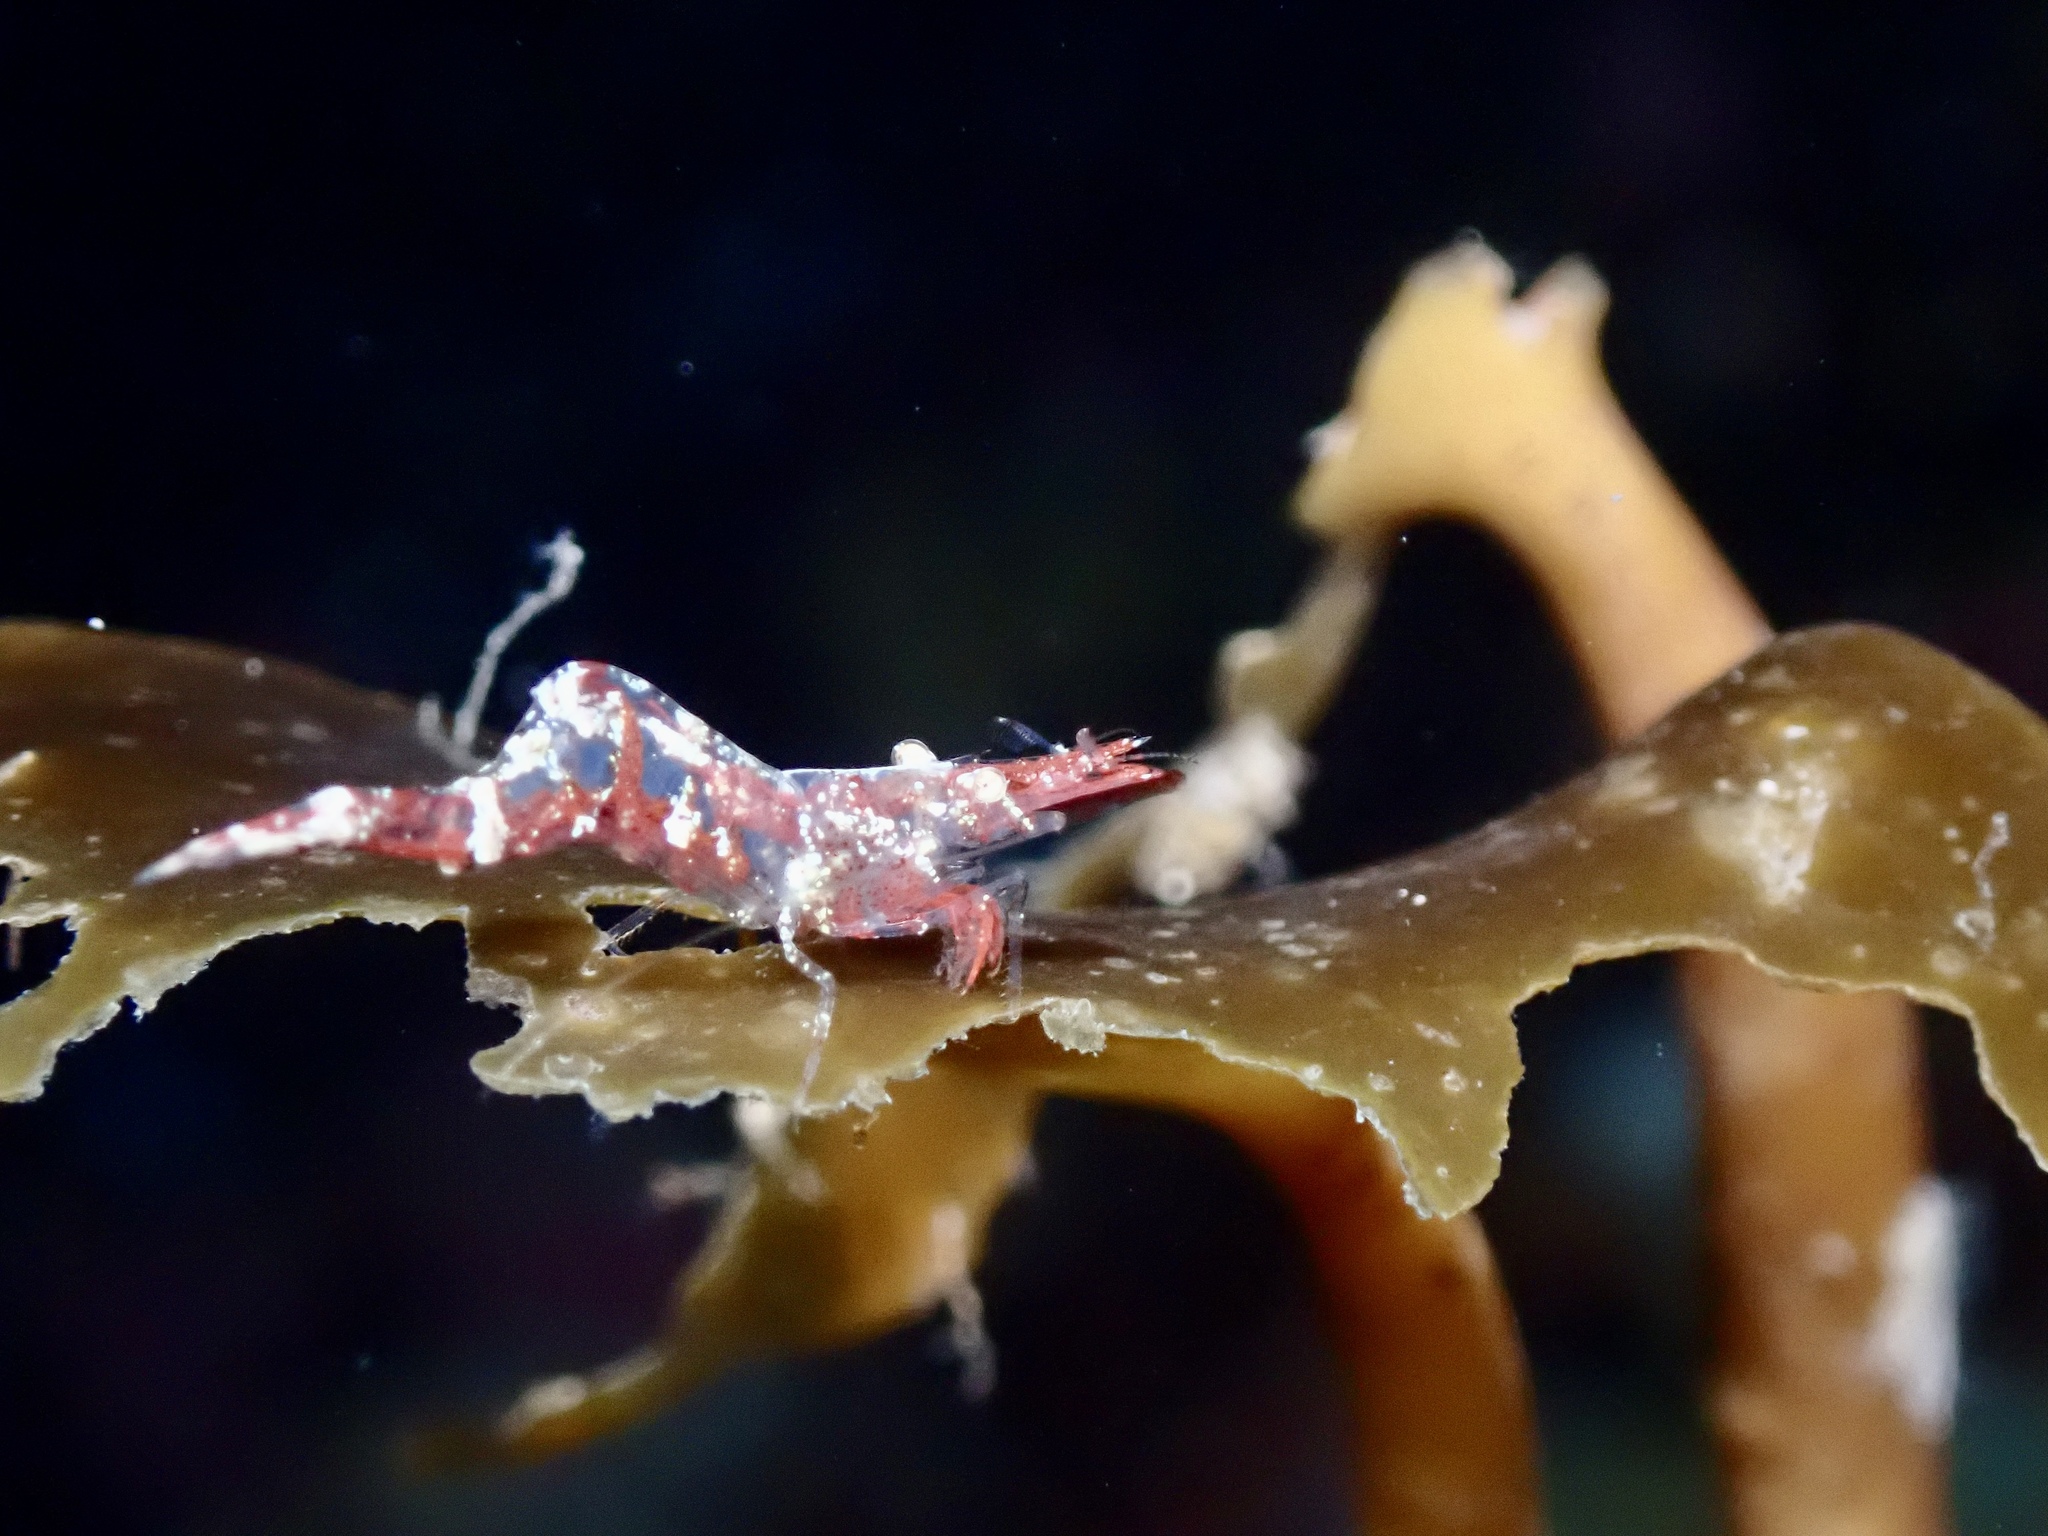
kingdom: Animalia
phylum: Arthropoda
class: Malacostraca
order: Decapoda
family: Hippolytidae
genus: Hippolyte
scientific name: Hippolyte varians
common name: Chamaeleon prawn
